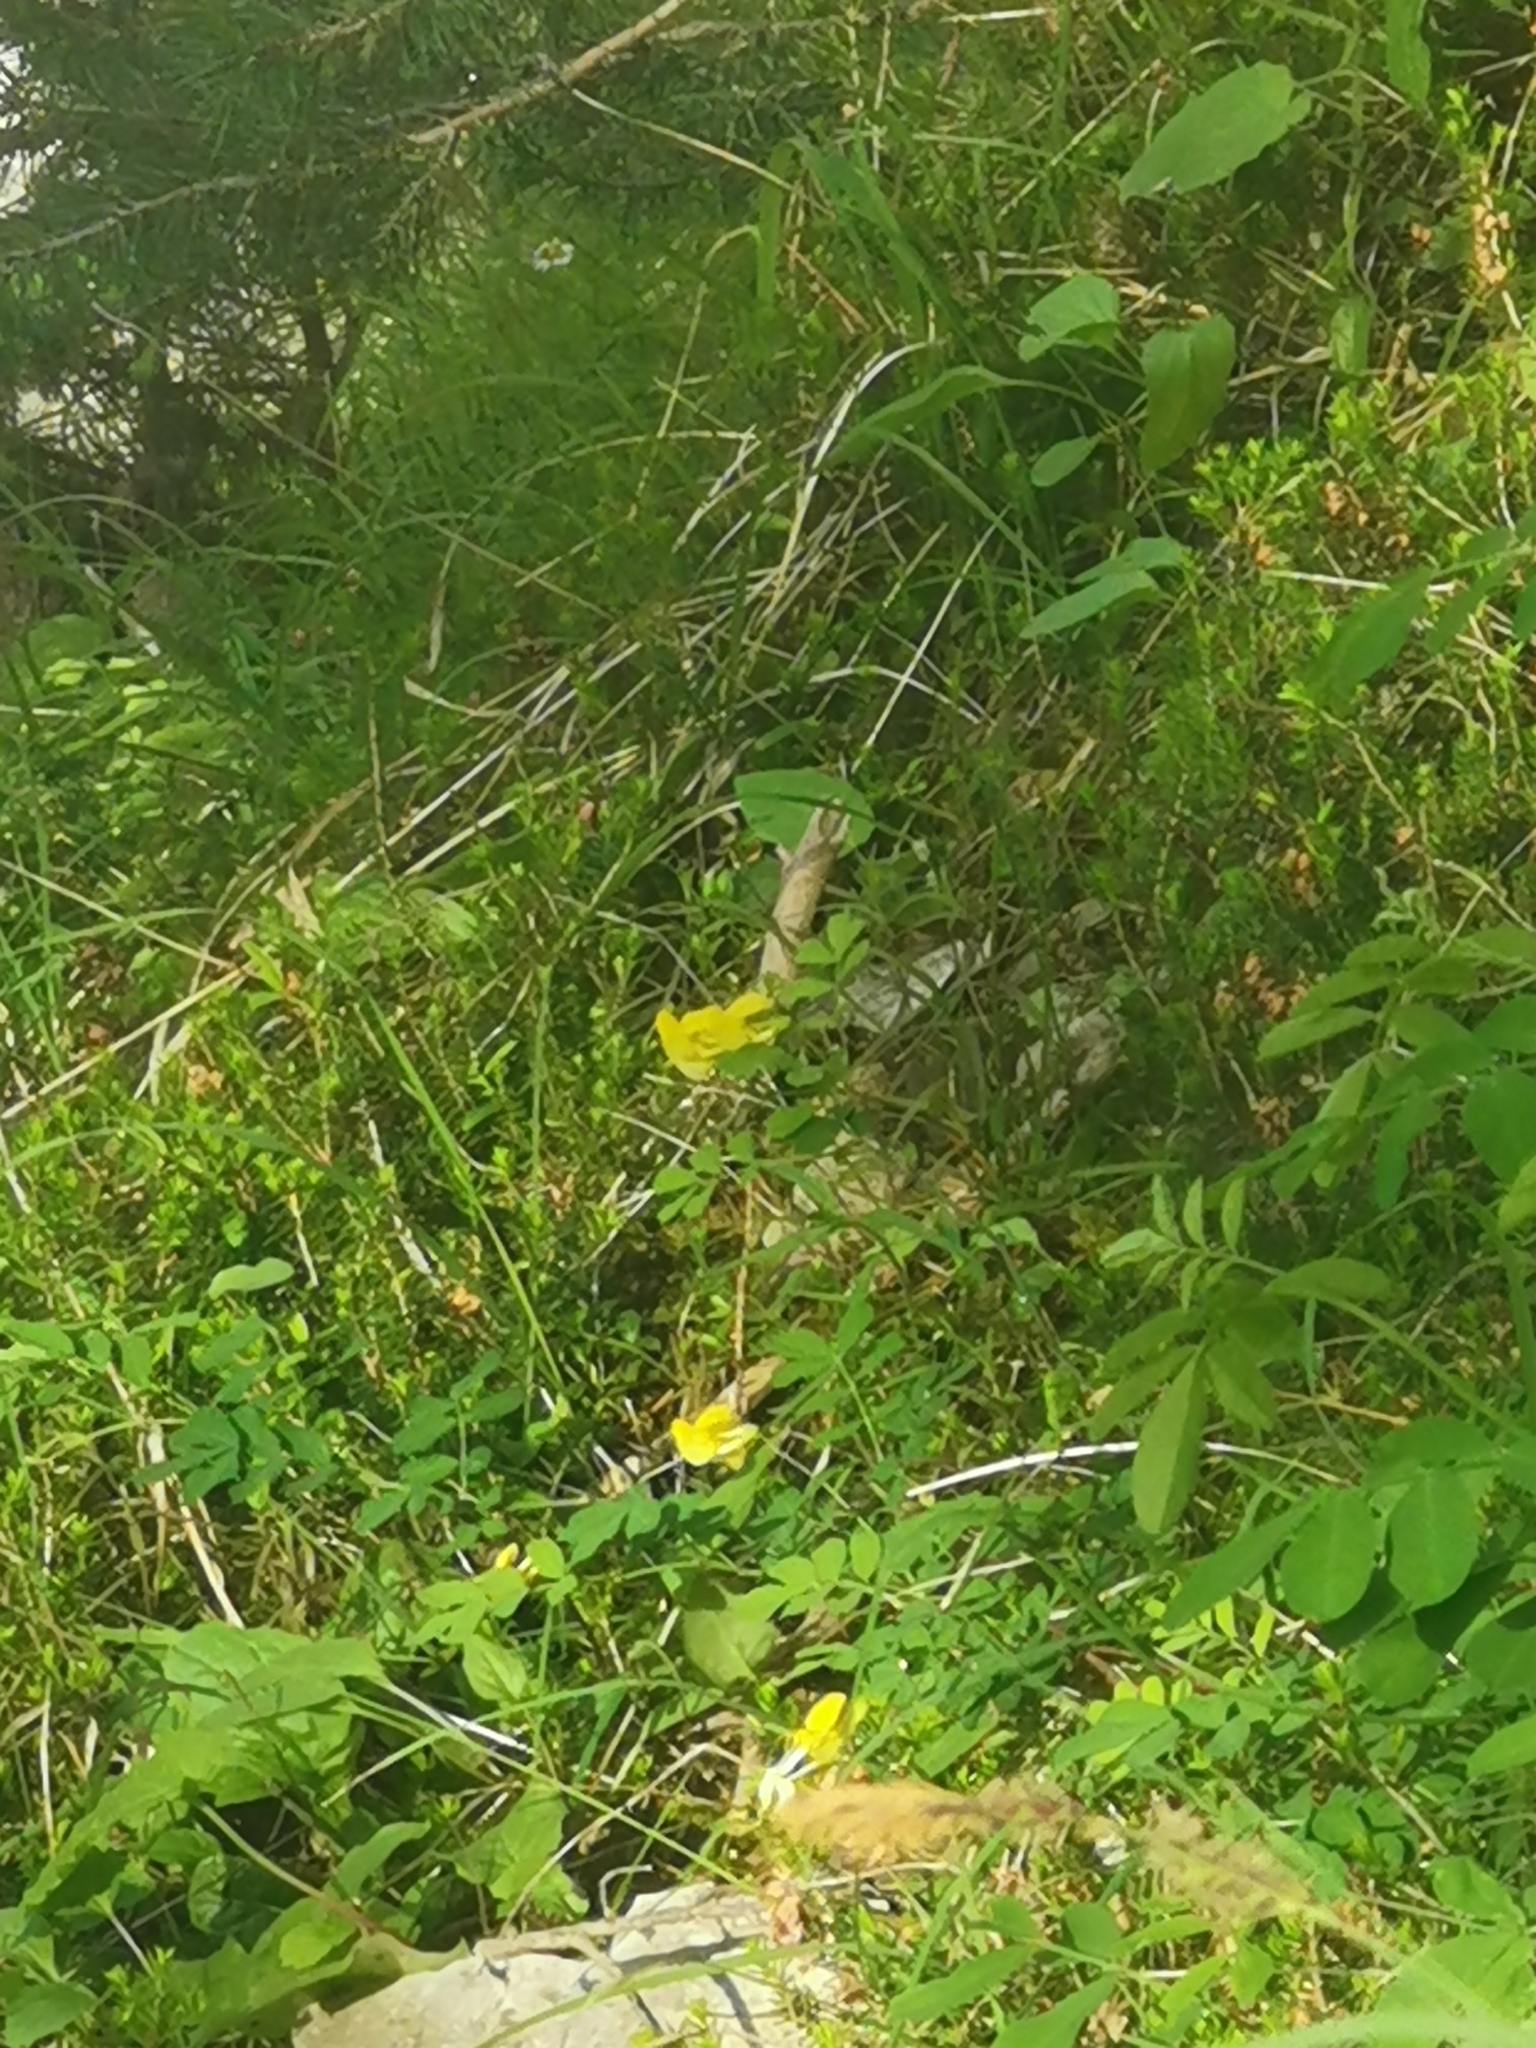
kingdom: Plantae
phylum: Tracheophyta
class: Magnoliopsida
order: Fabales
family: Fabaceae
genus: Hippocrepis
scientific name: Hippocrepis emerus
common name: Scorpion senna
